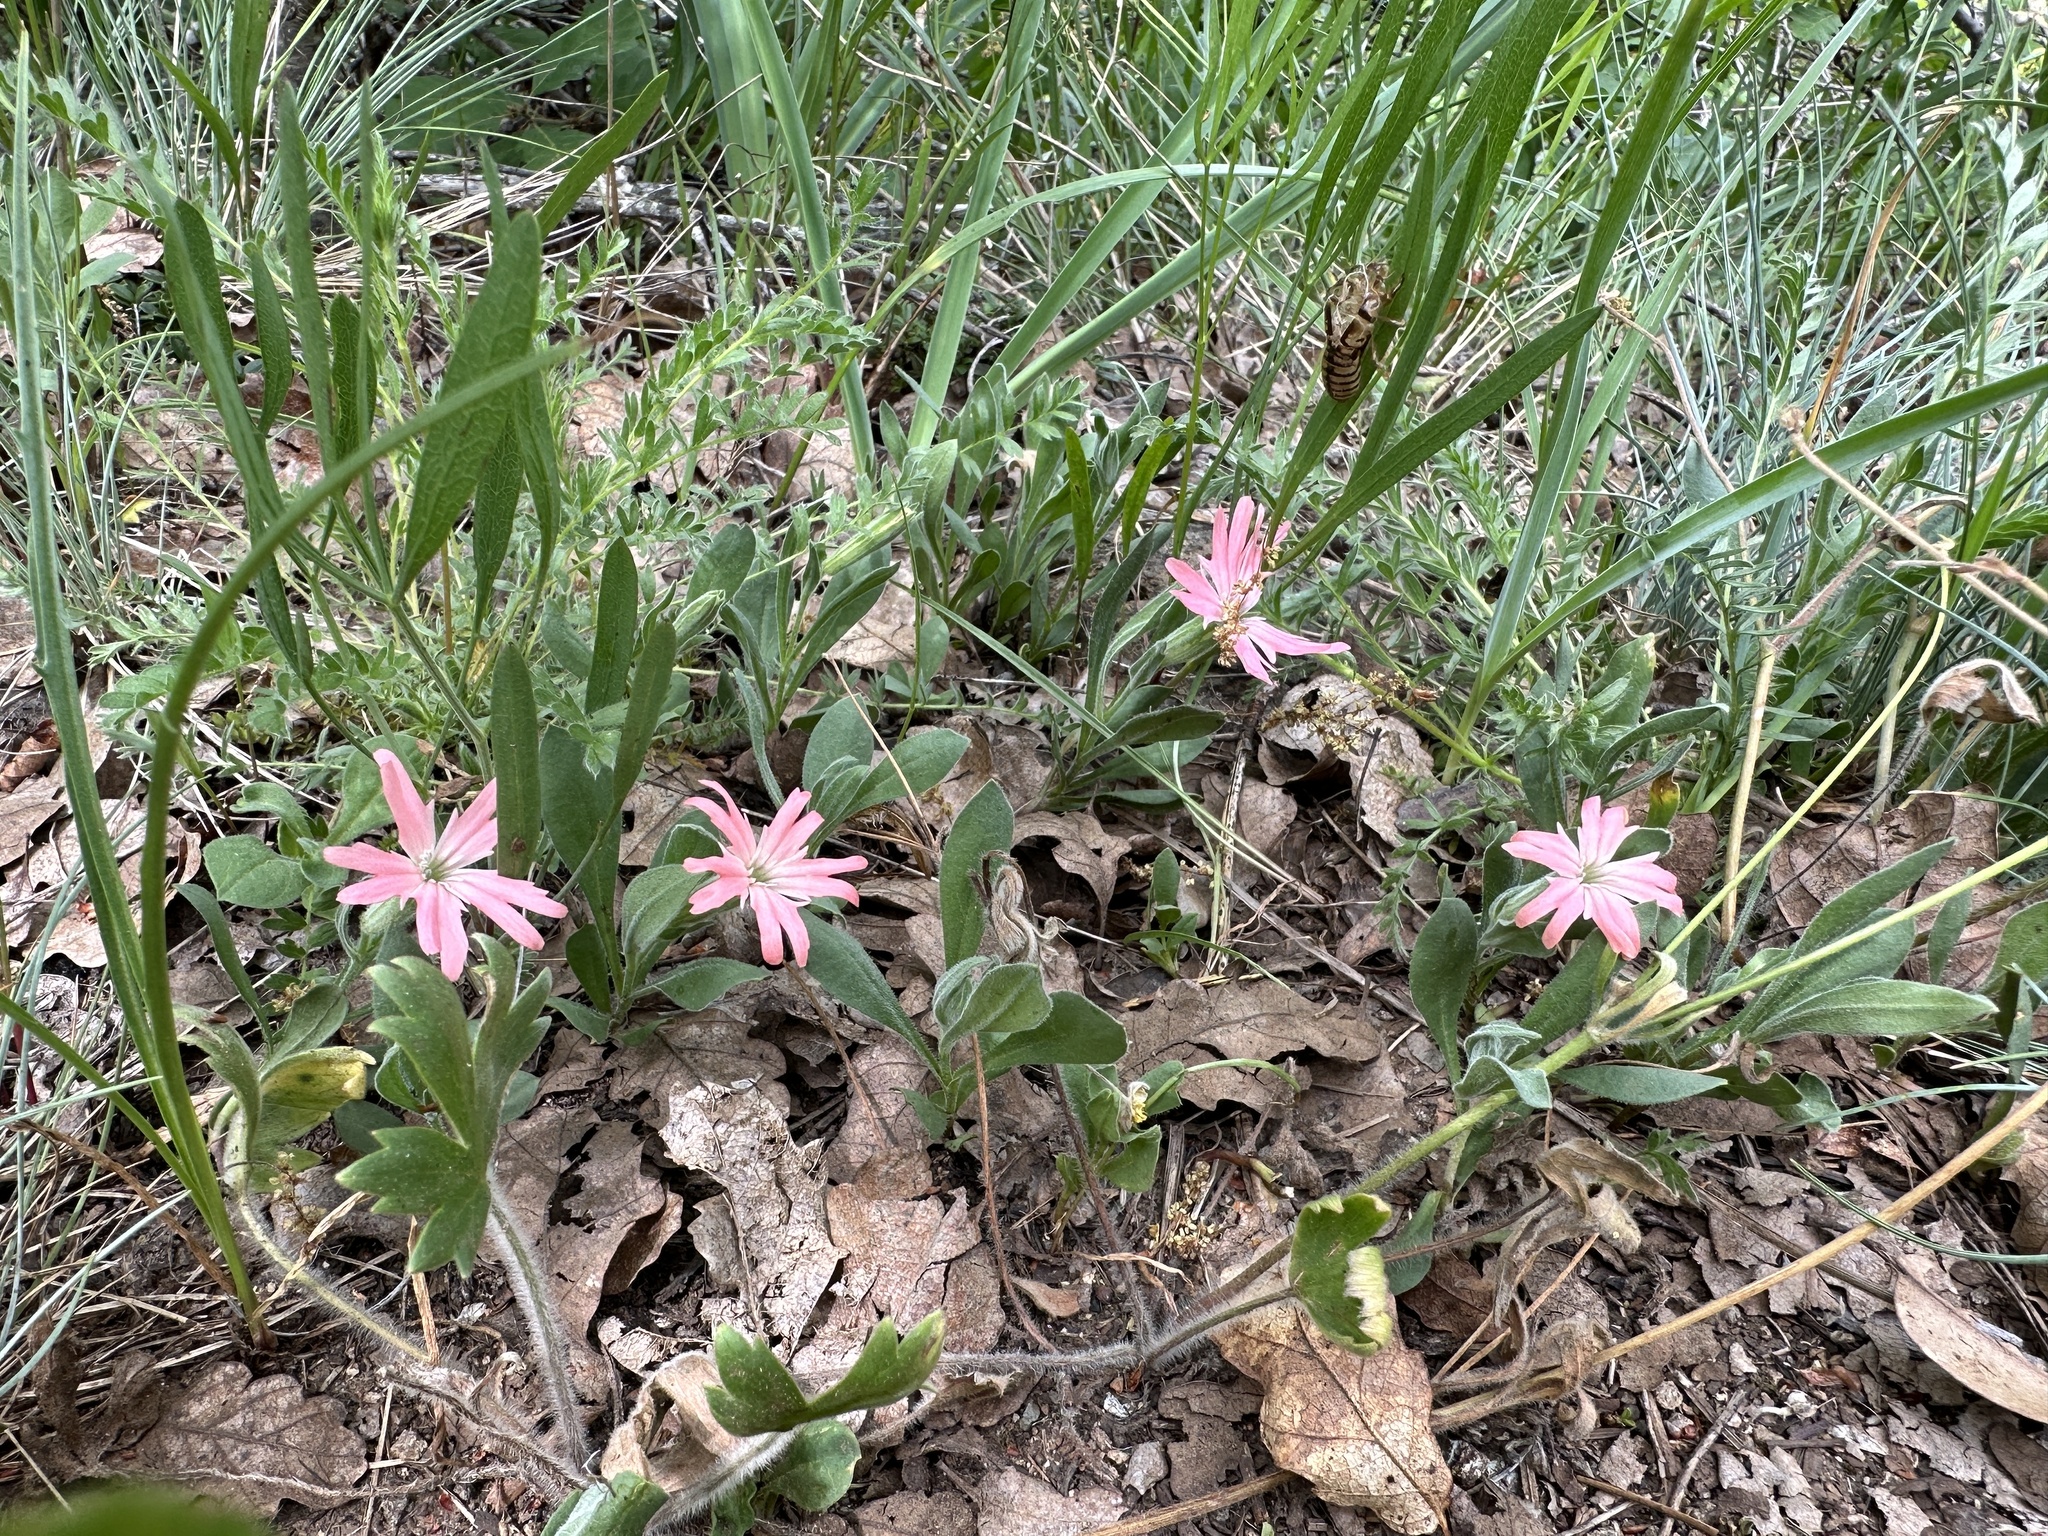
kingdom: Plantae
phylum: Tracheophyta
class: Magnoliopsida
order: Caryophyllales
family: Caryophyllaceae
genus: Silene
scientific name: Silene hookeri
